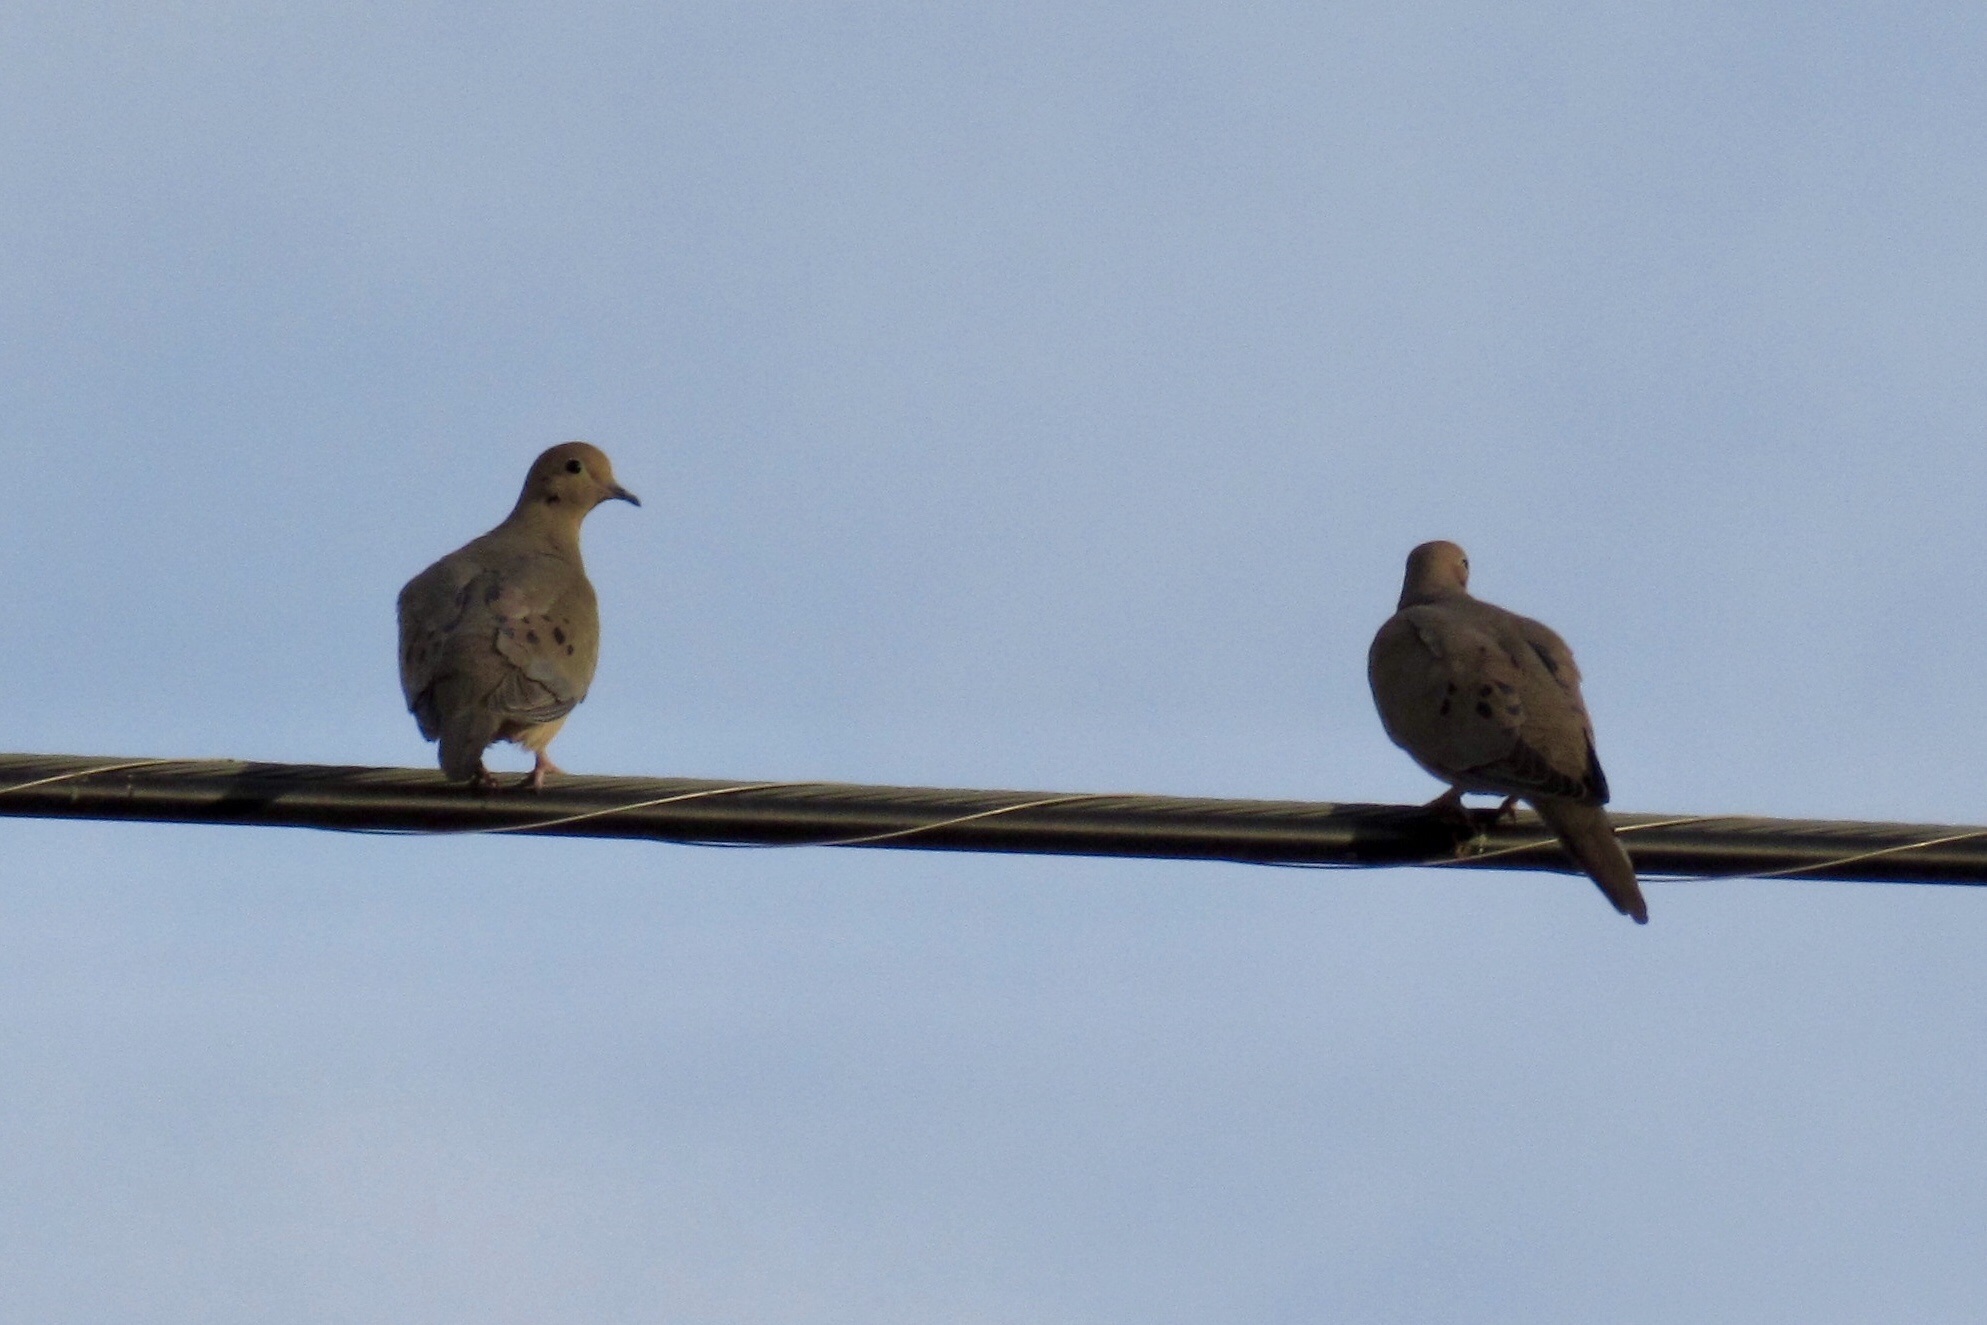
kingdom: Animalia
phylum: Chordata
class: Aves
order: Columbiformes
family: Columbidae
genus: Zenaida
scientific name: Zenaida macroura
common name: Mourning dove
